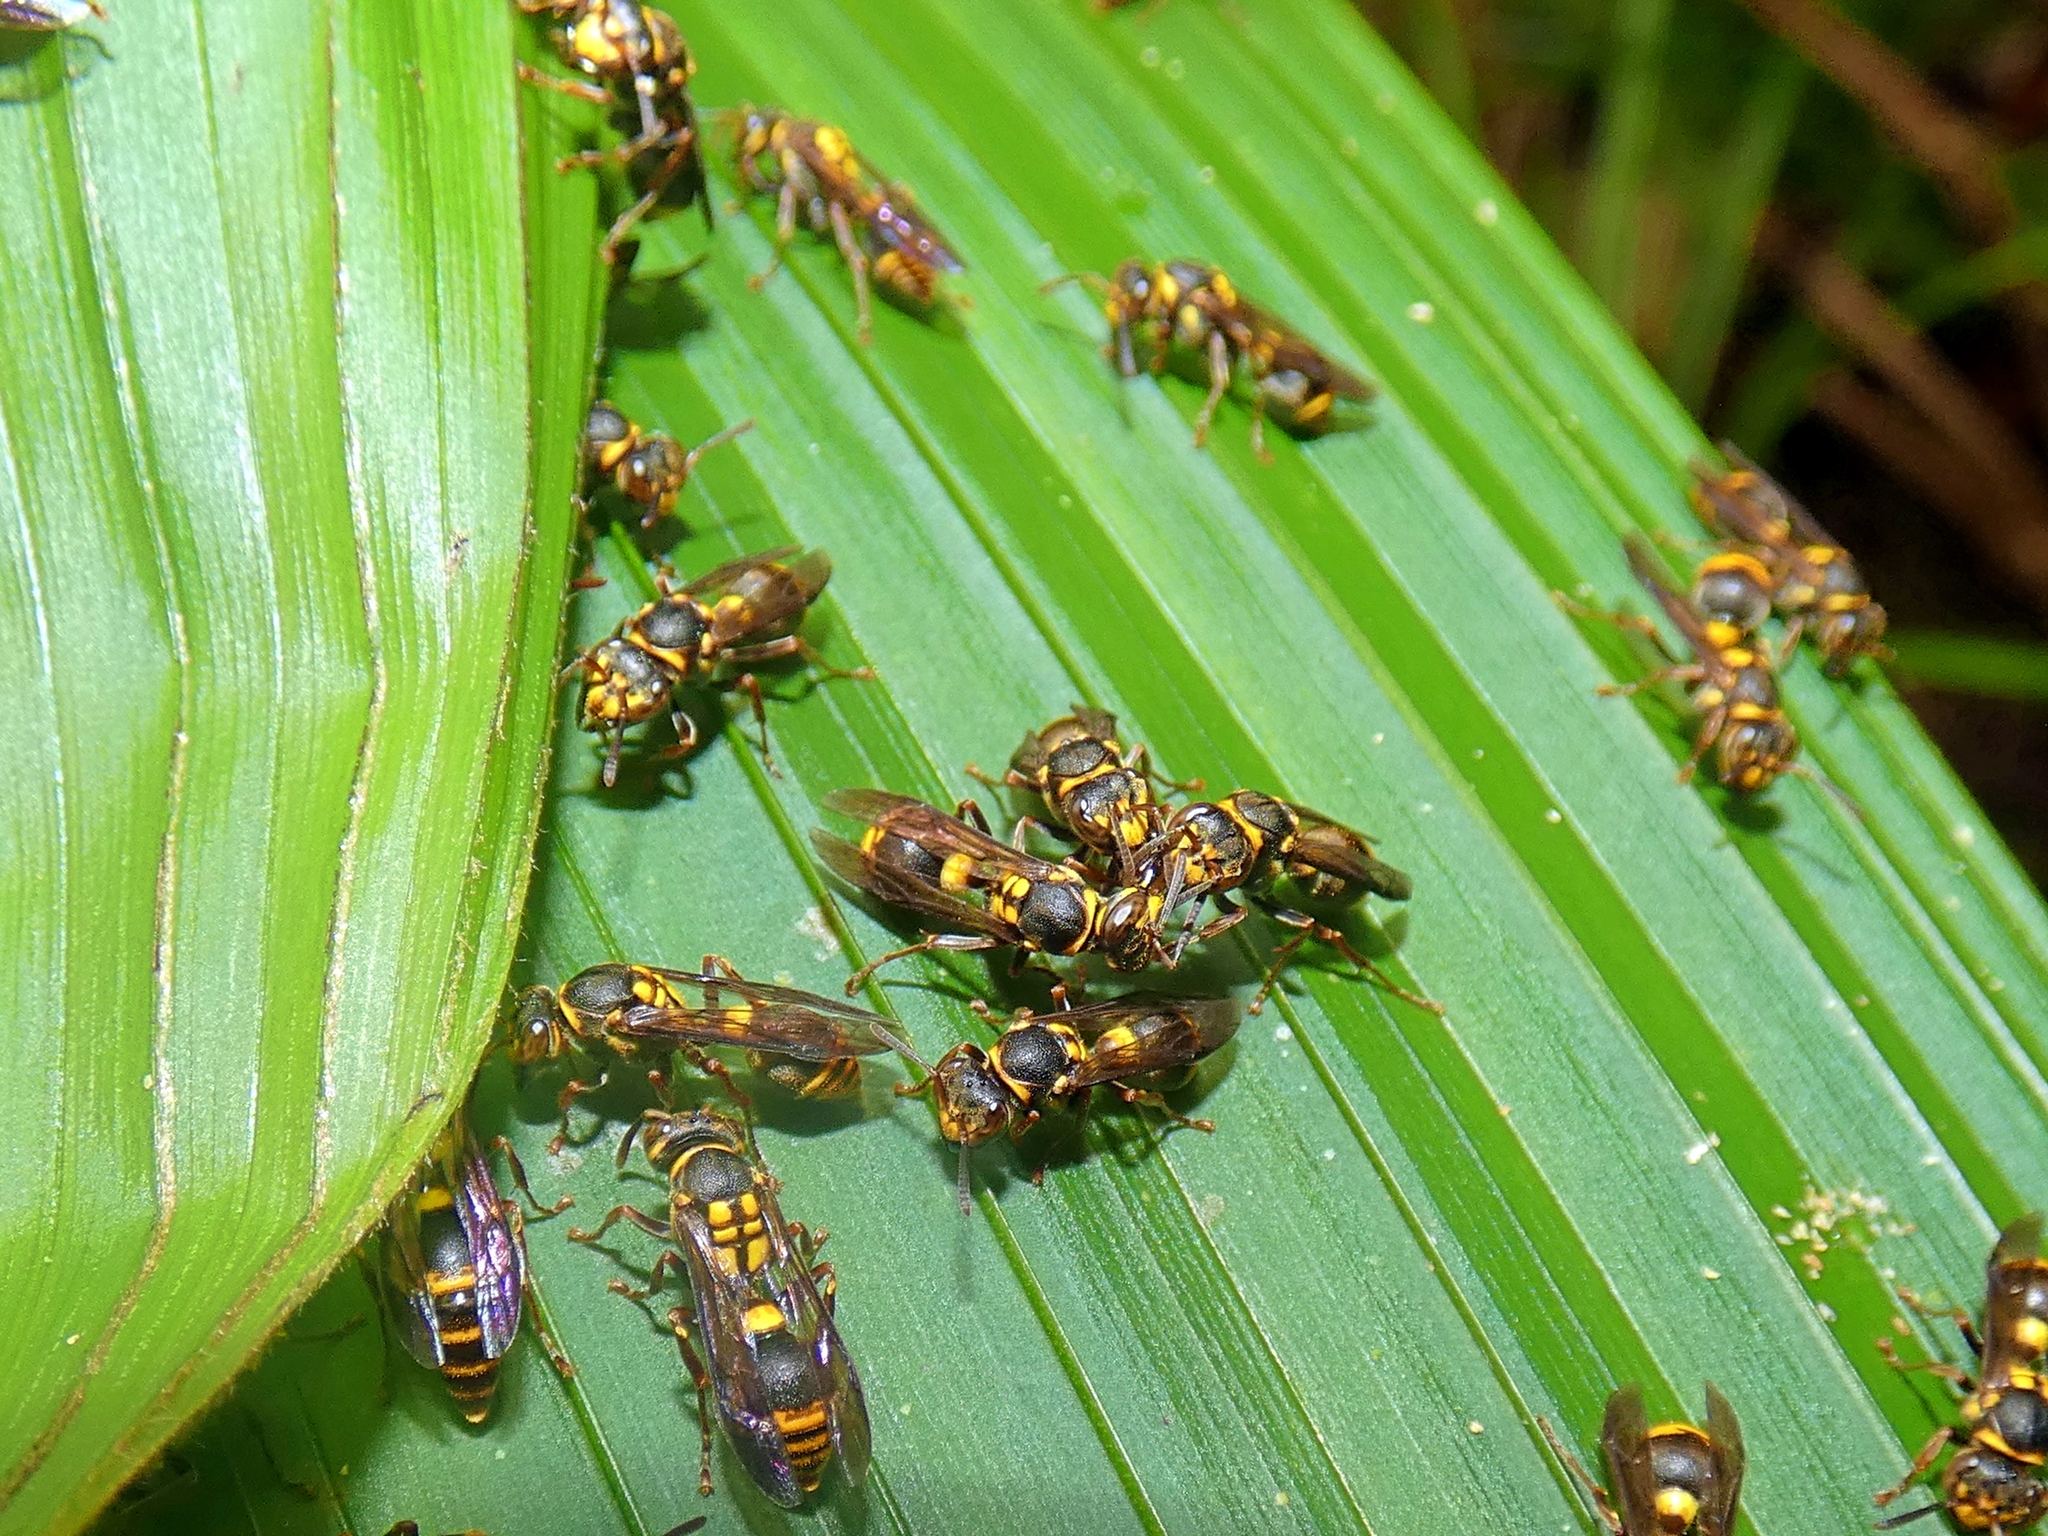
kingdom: Animalia
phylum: Arthropoda
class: Insecta
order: Hymenoptera
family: Vespidae
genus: Ropalidia
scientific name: Ropalidia socialistica
